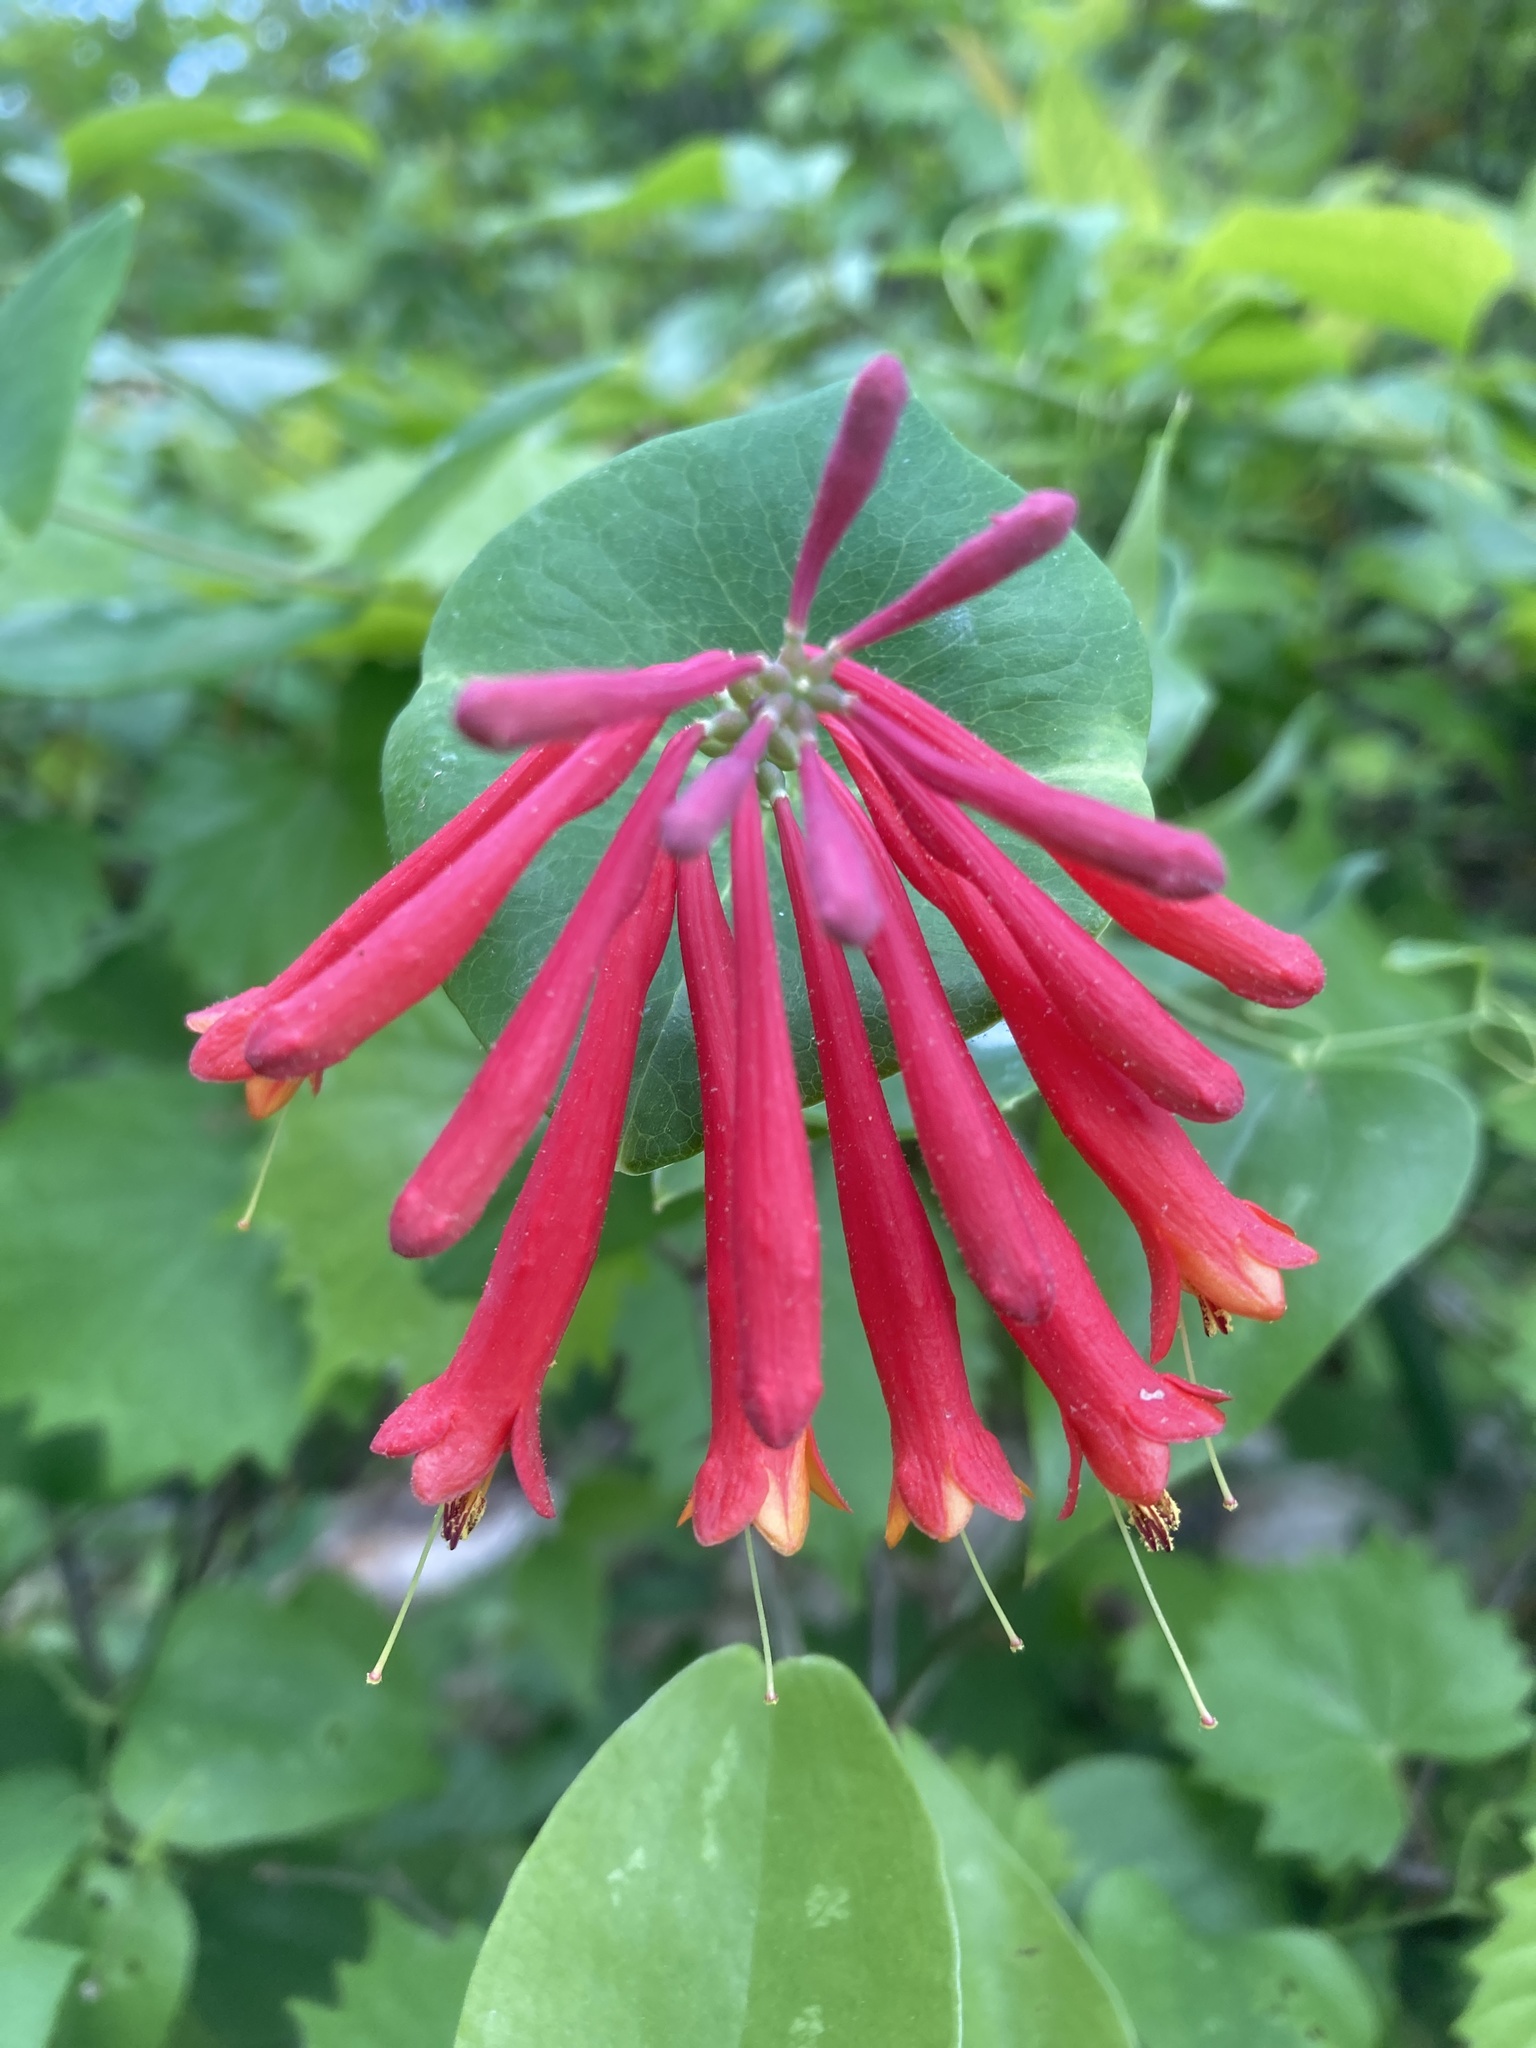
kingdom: Plantae
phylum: Tracheophyta
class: Magnoliopsida
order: Dipsacales
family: Caprifoliaceae
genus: Lonicera
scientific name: Lonicera sempervirens
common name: Coral honeysuckle
